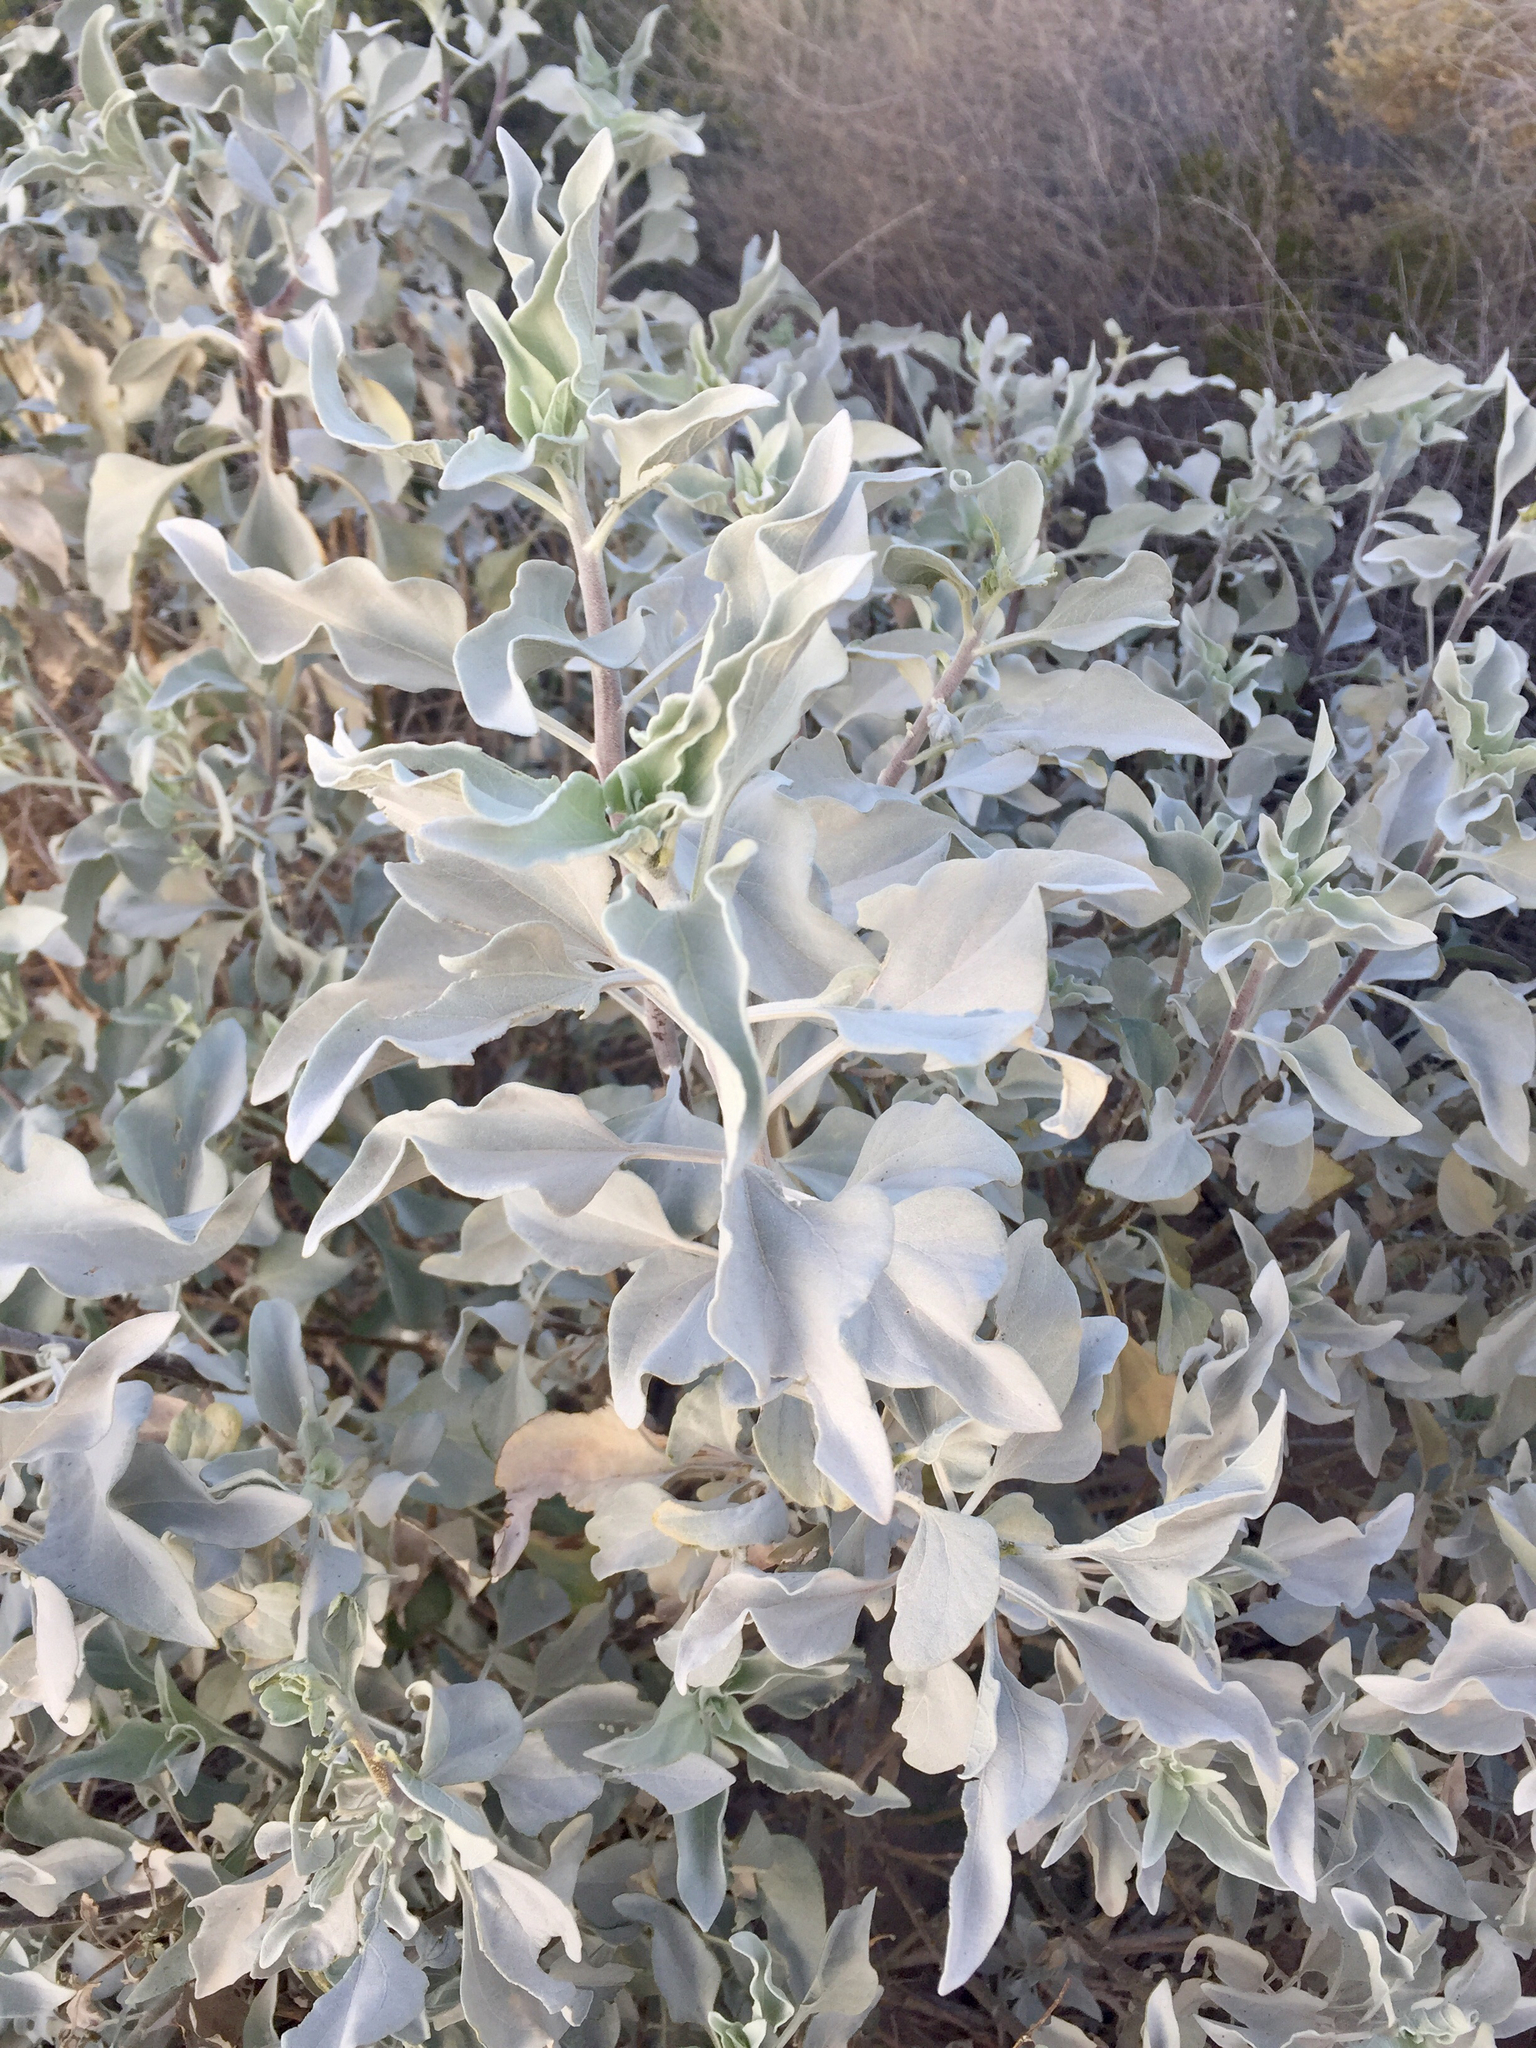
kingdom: Plantae
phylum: Tracheophyta
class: Magnoliopsida
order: Asterales
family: Asteraceae
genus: Encelia
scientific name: Encelia farinosa
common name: Brittlebush
